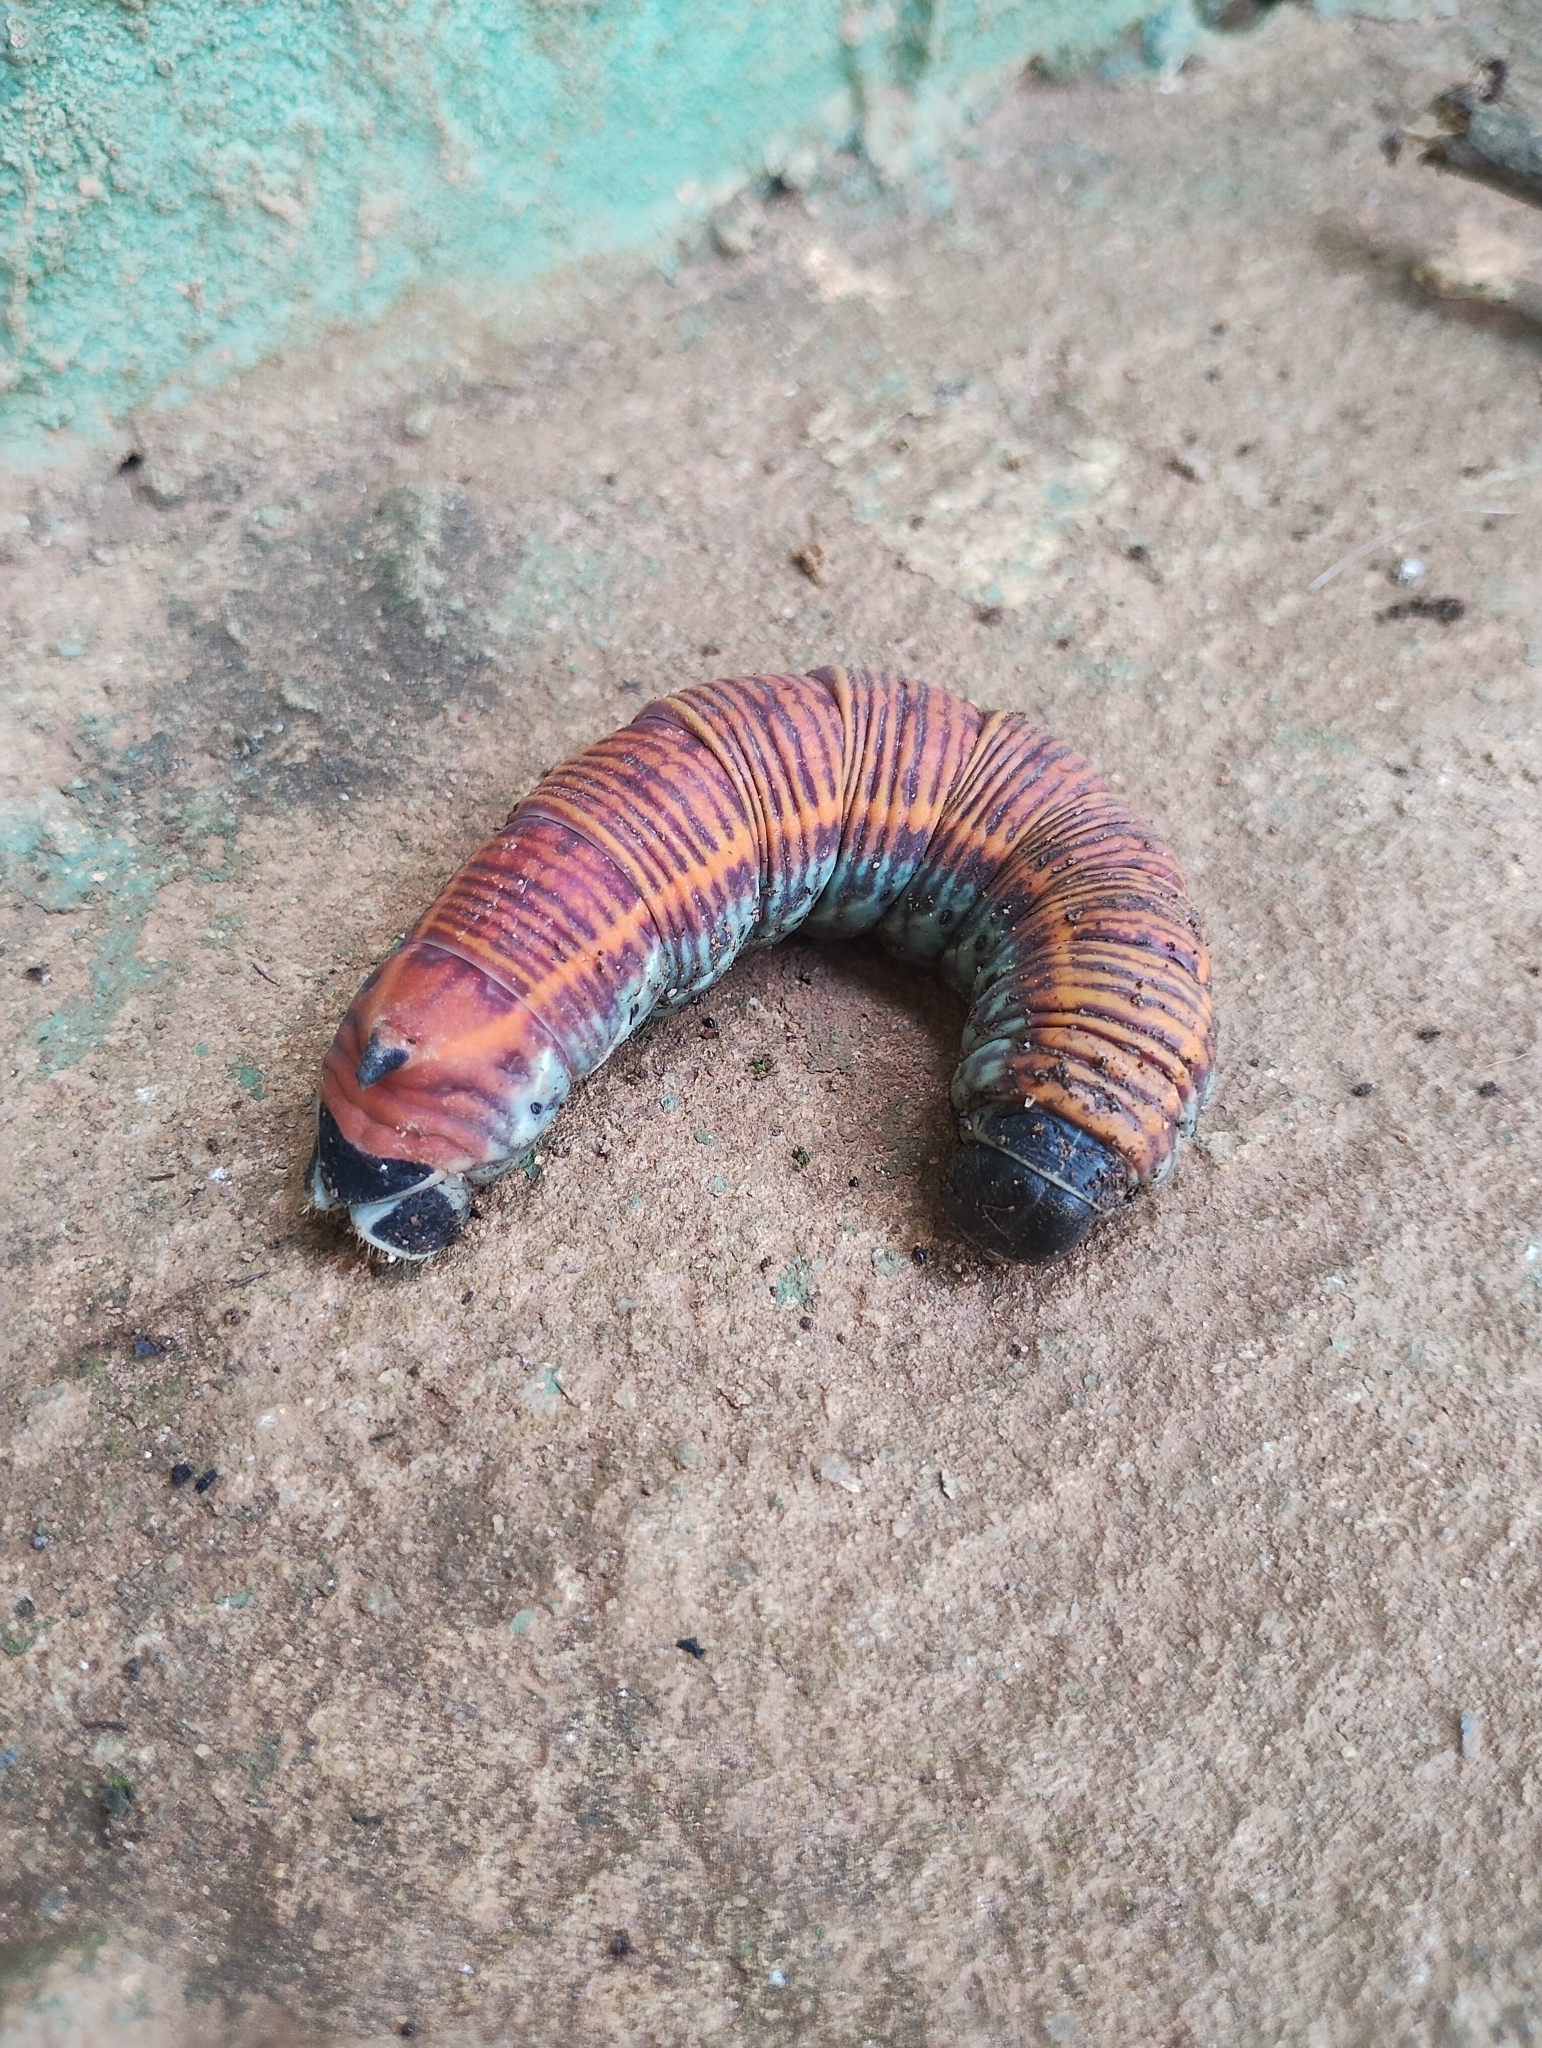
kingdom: Animalia
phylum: Arthropoda
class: Insecta
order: Lepidoptera
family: Sphingidae
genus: Pachylia
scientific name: Pachylia ficus
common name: Fig sphinx
